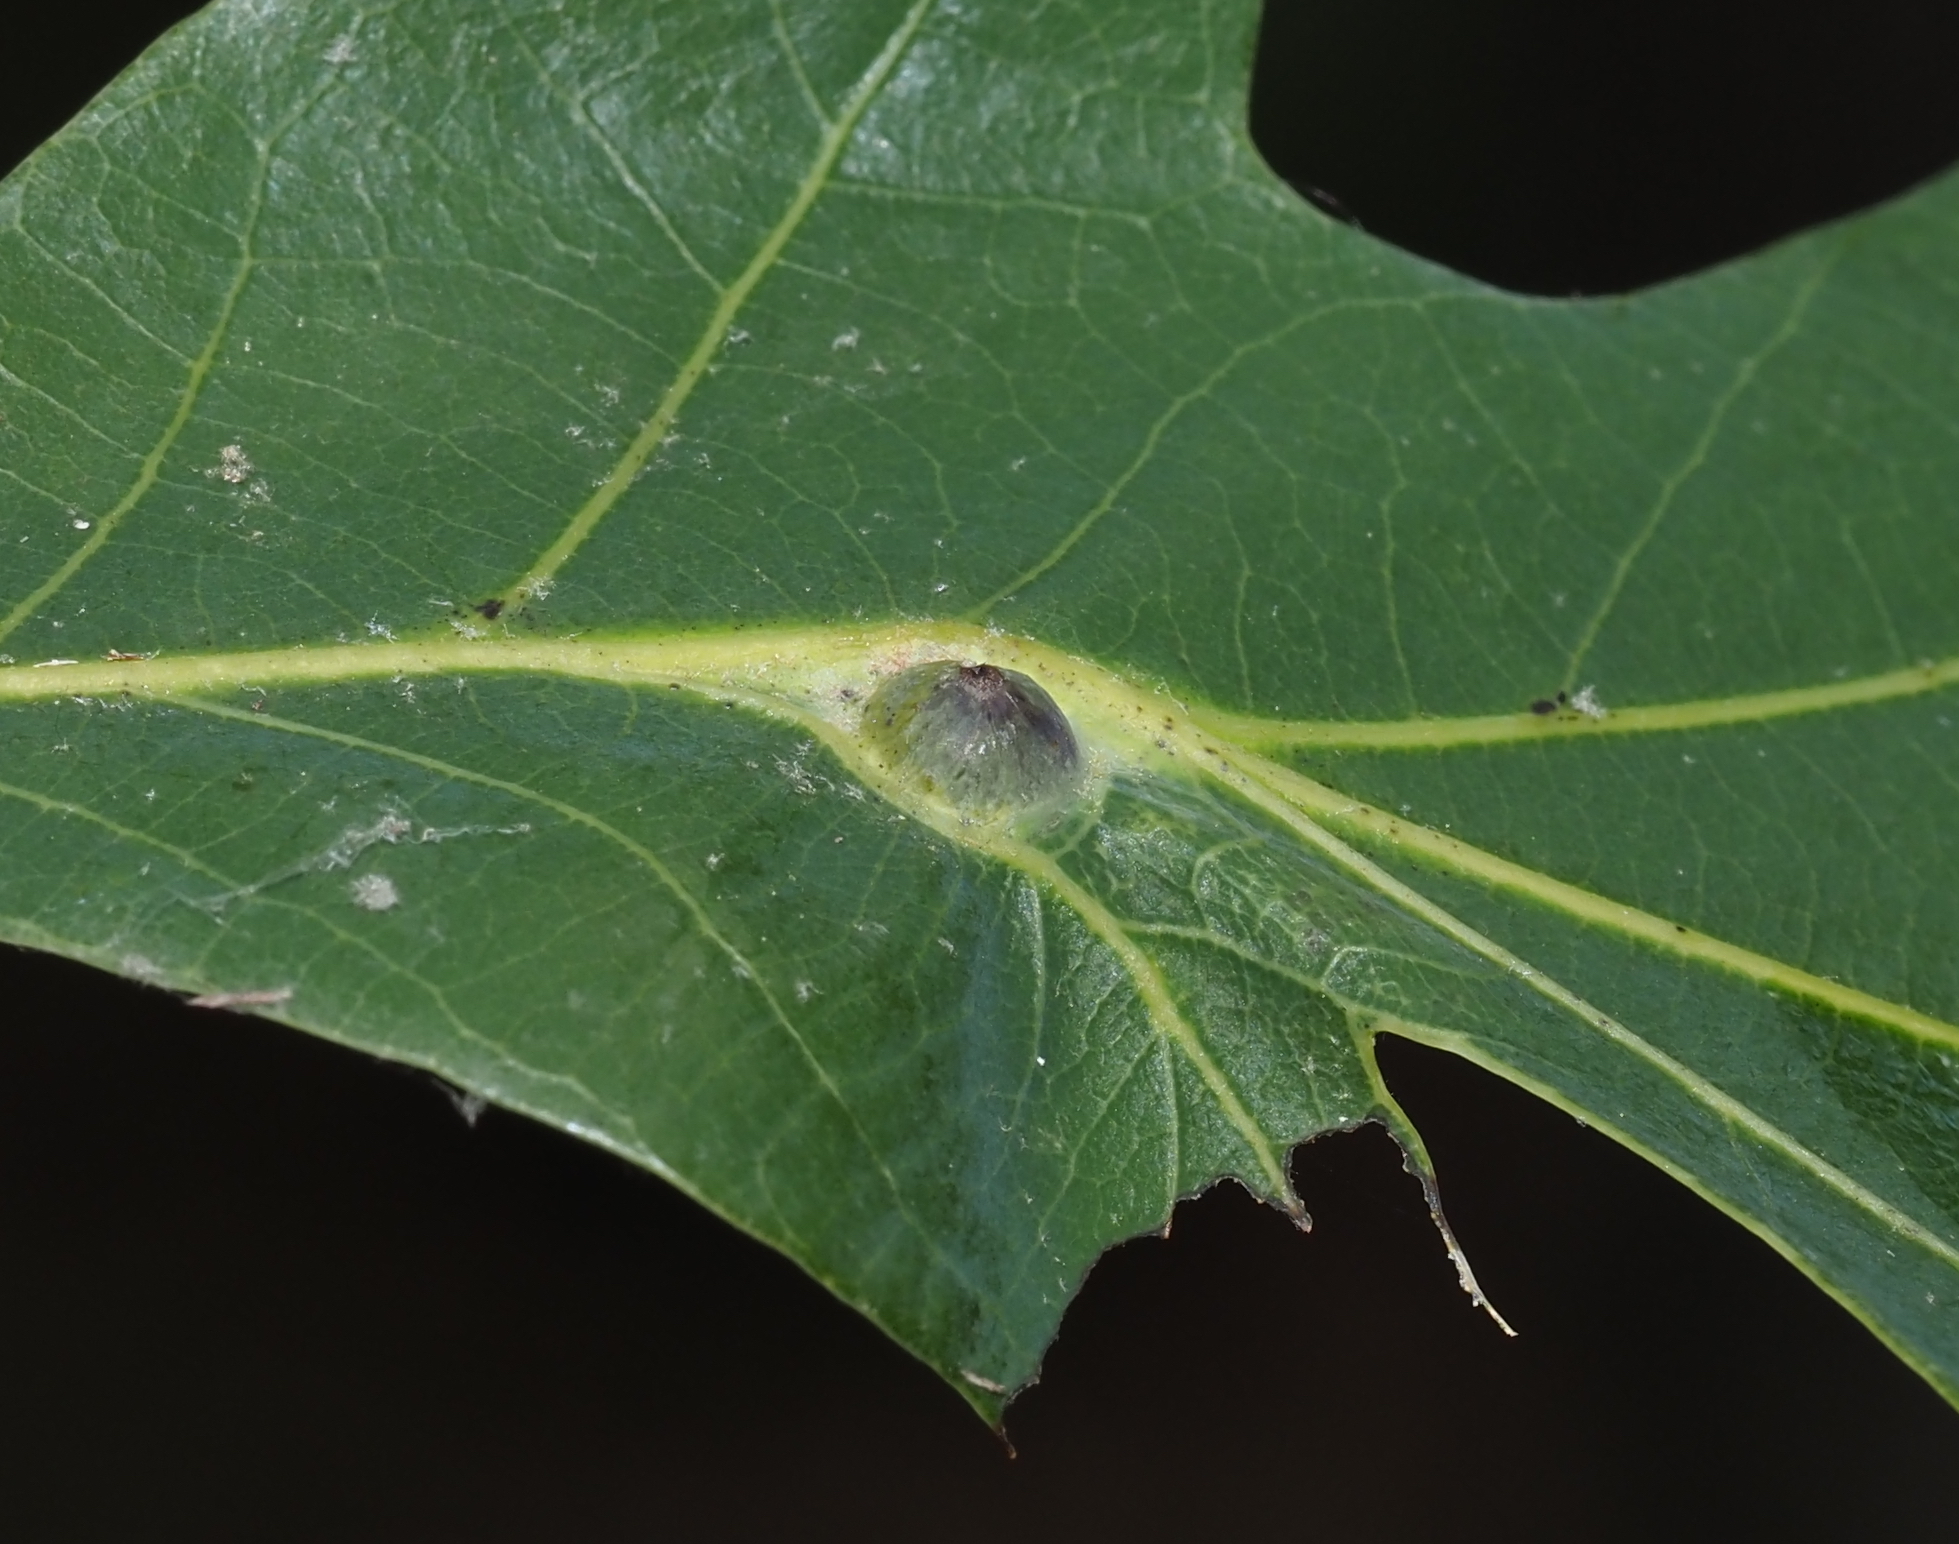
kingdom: Animalia
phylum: Arthropoda
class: Insecta
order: Hymenoptera
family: Cynipidae
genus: Andricus
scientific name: Andricus
